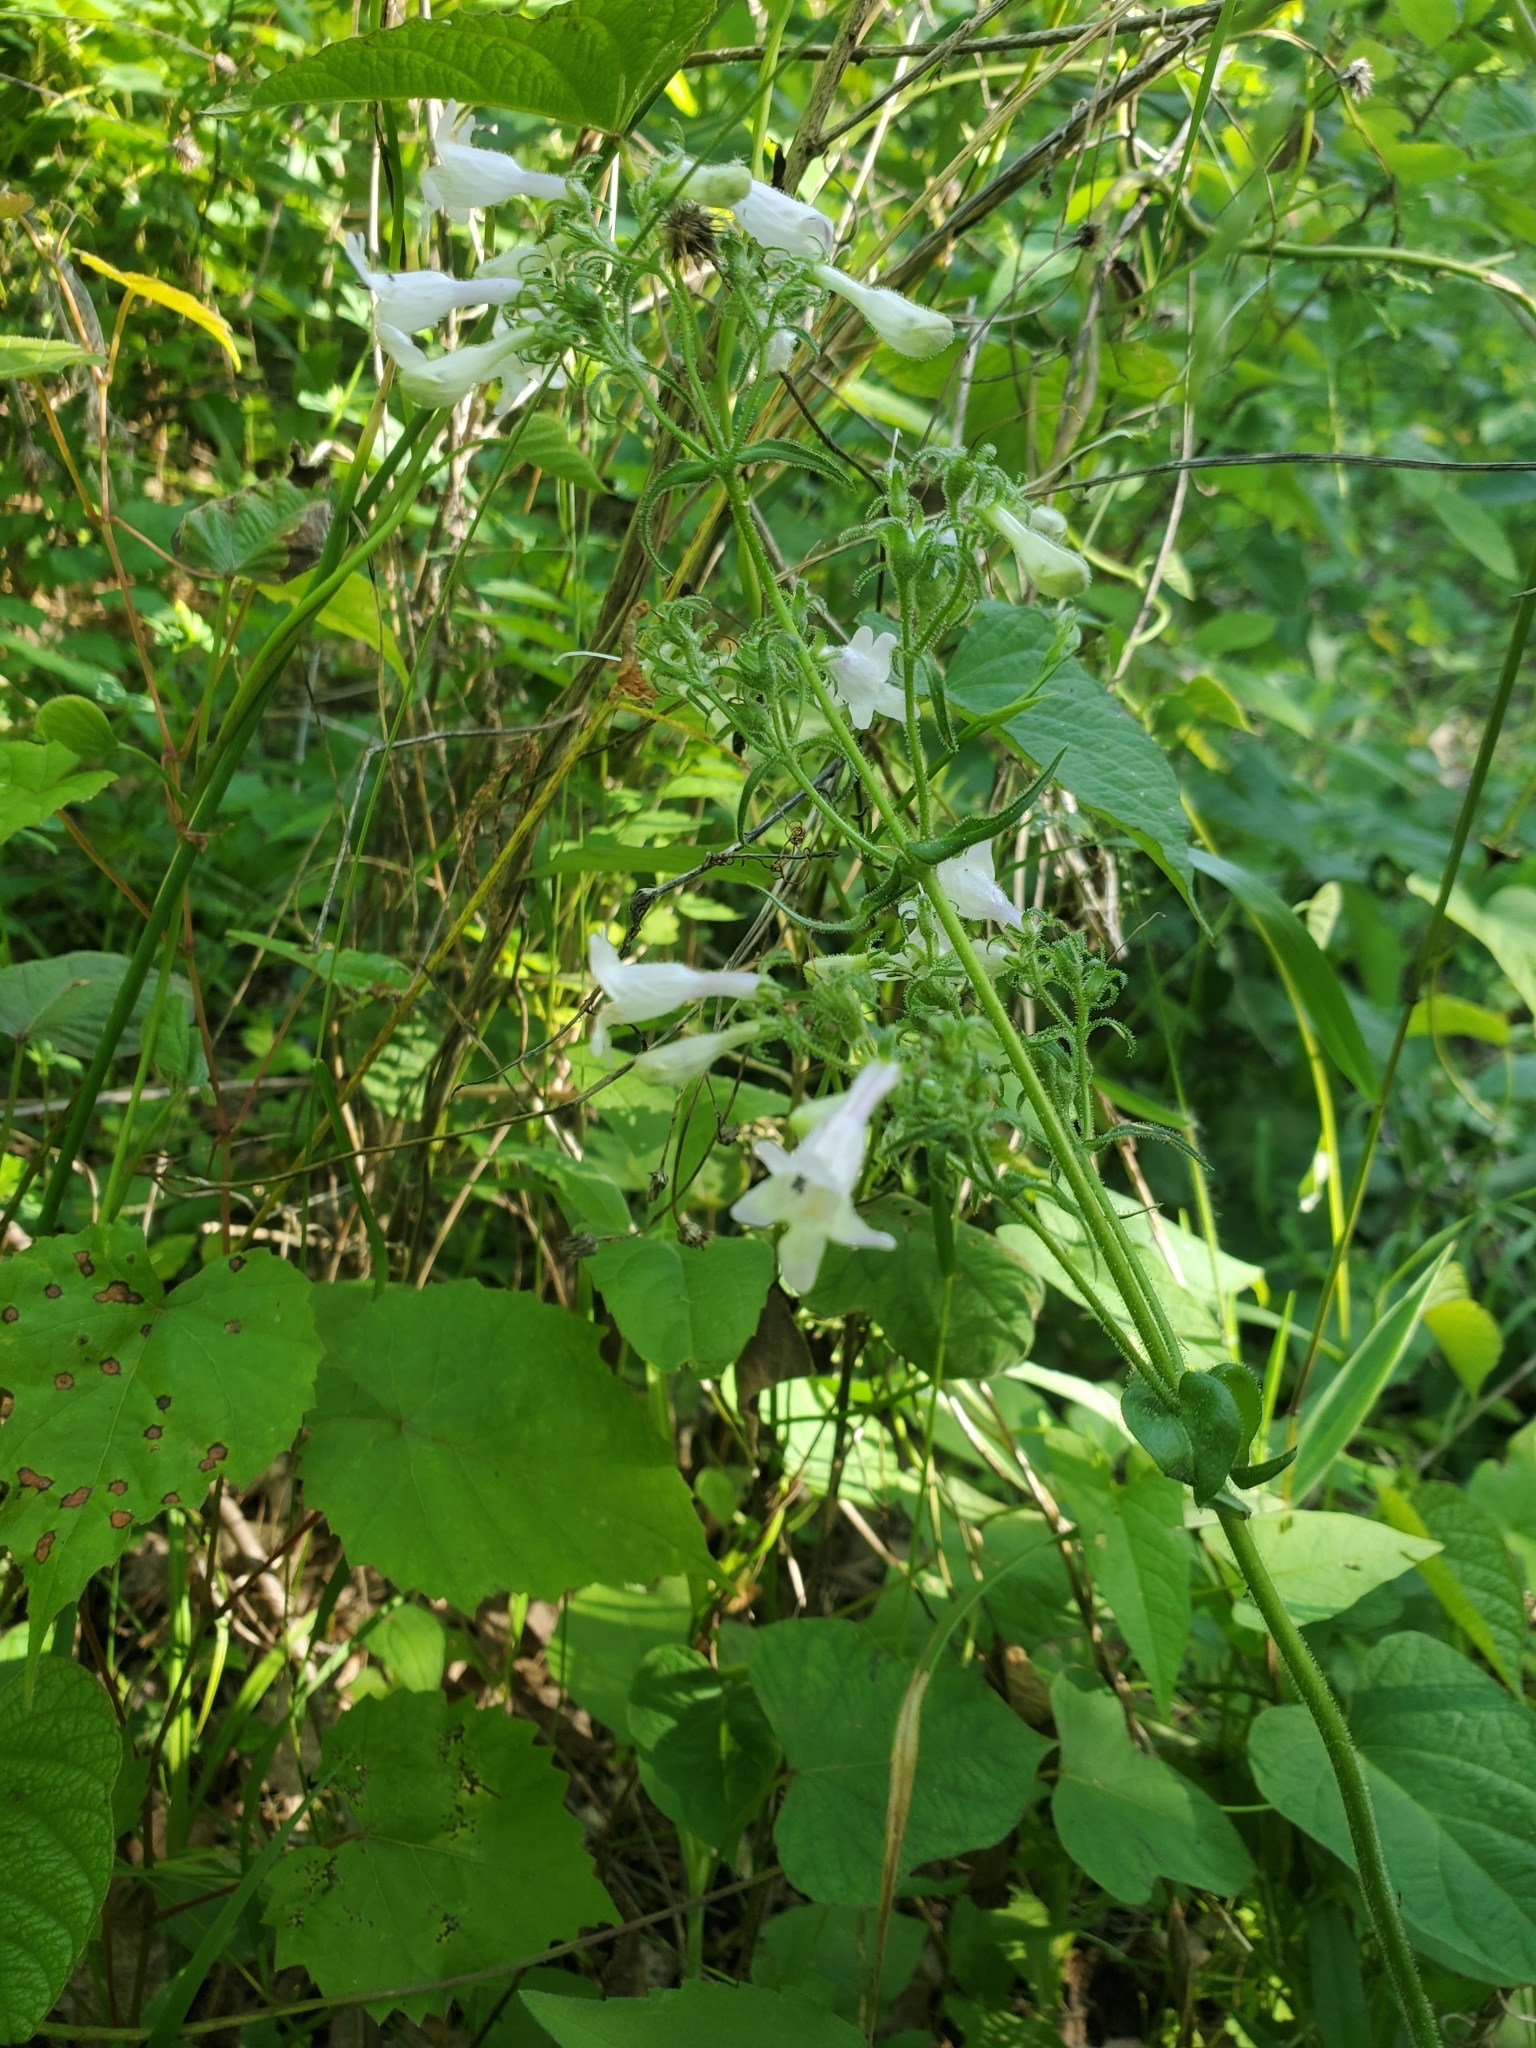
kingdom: Plantae
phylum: Tracheophyta
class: Magnoliopsida
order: Lamiales
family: Plantaginaceae
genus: Penstemon
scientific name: Penstemon digitalis
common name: Foxglove beardtongue
